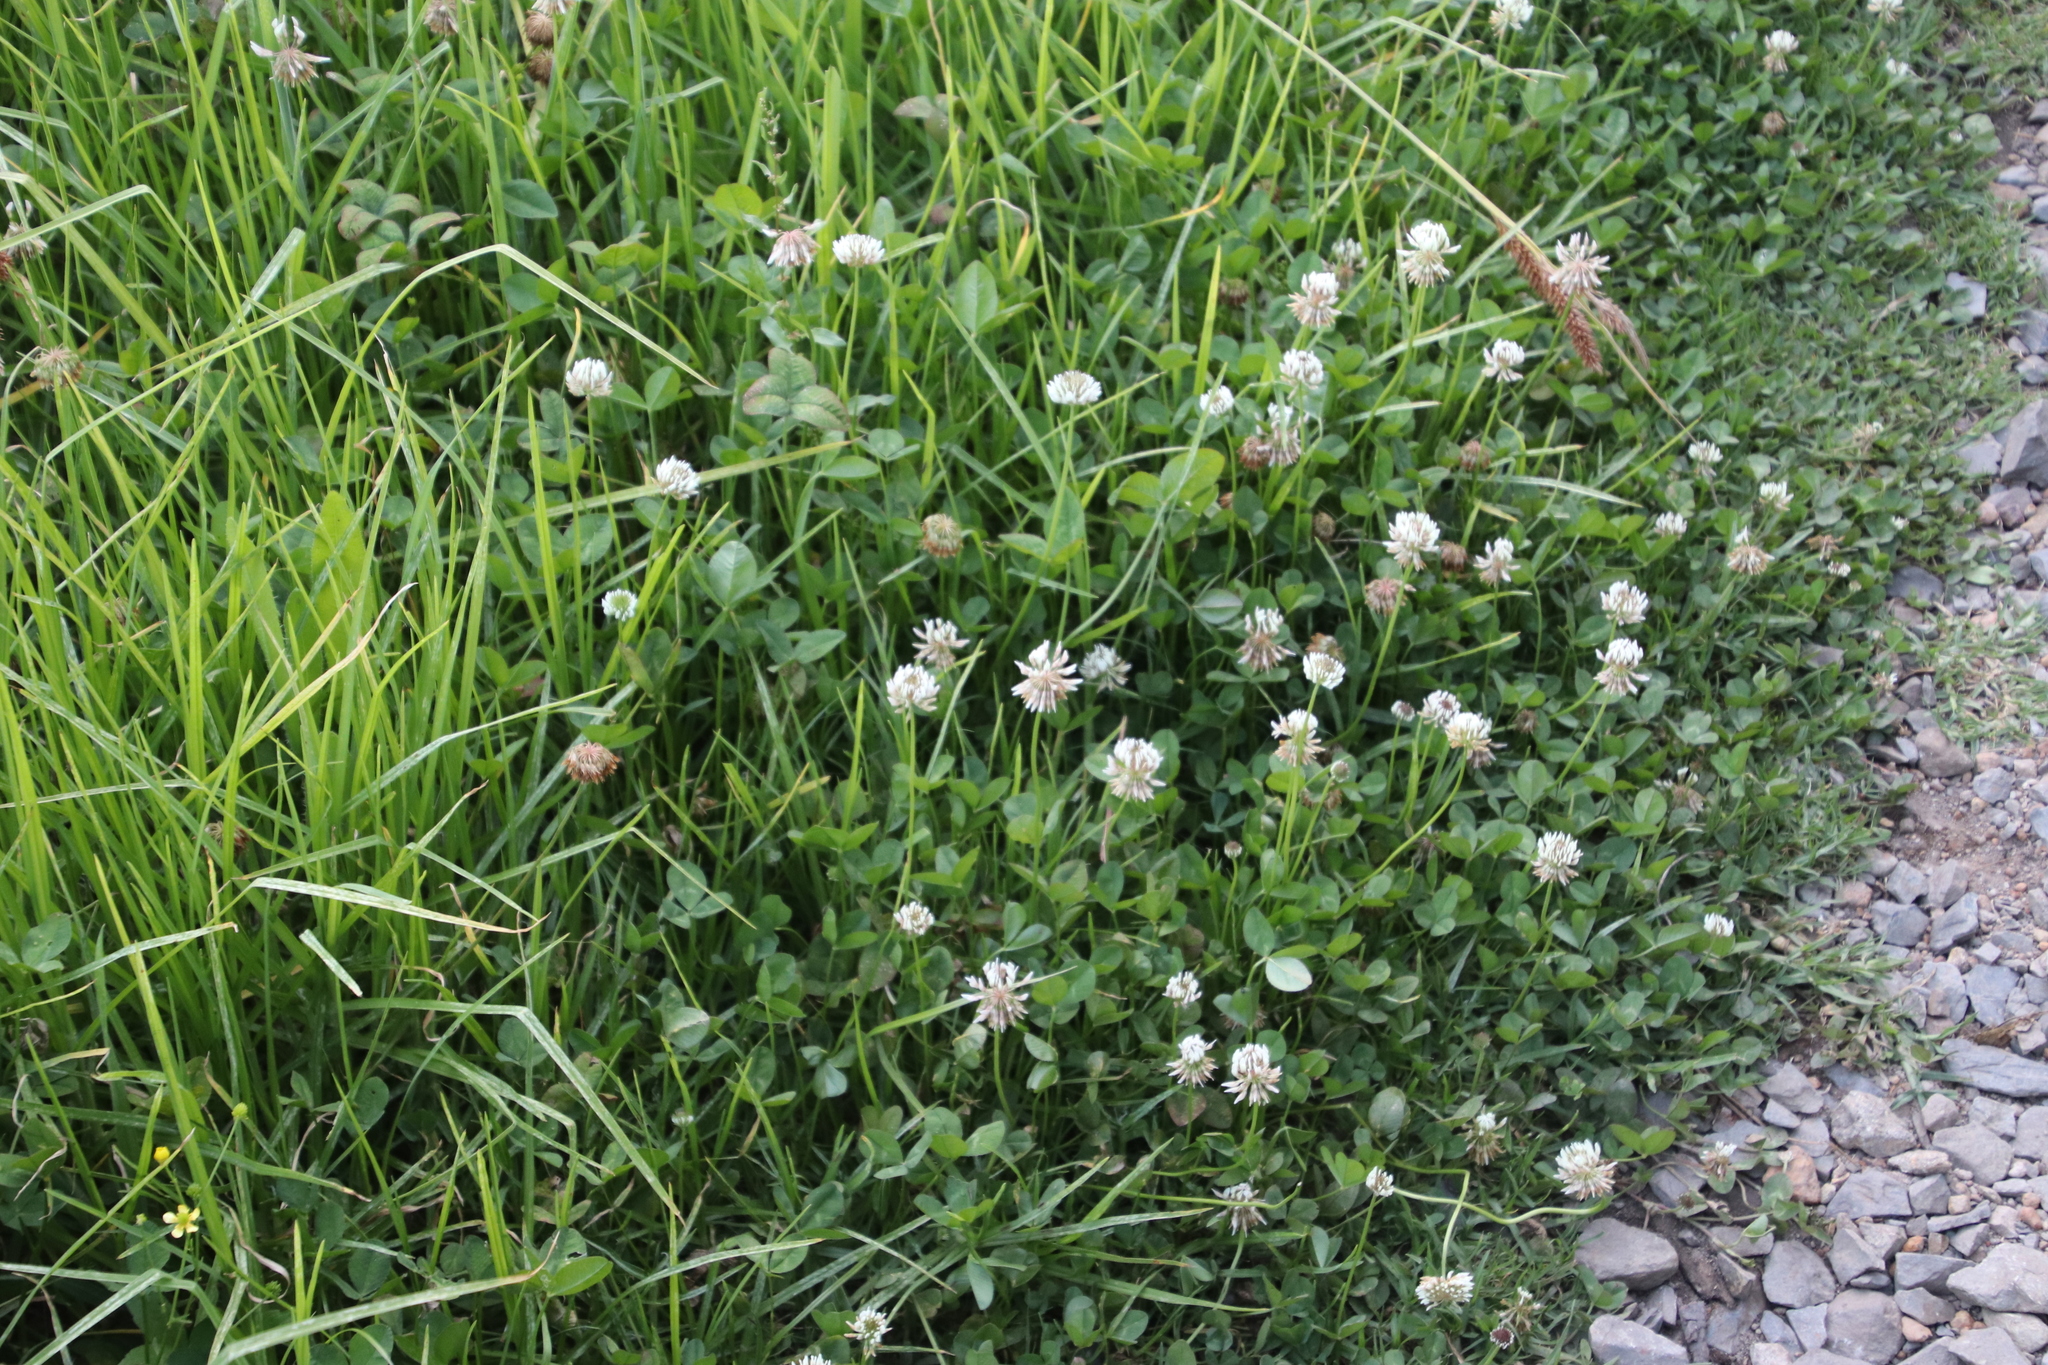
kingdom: Plantae
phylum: Tracheophyta
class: Magnoliopsida
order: Fabales
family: Fabaceae
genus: Trifolium
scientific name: Trifolium repens
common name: White clover
